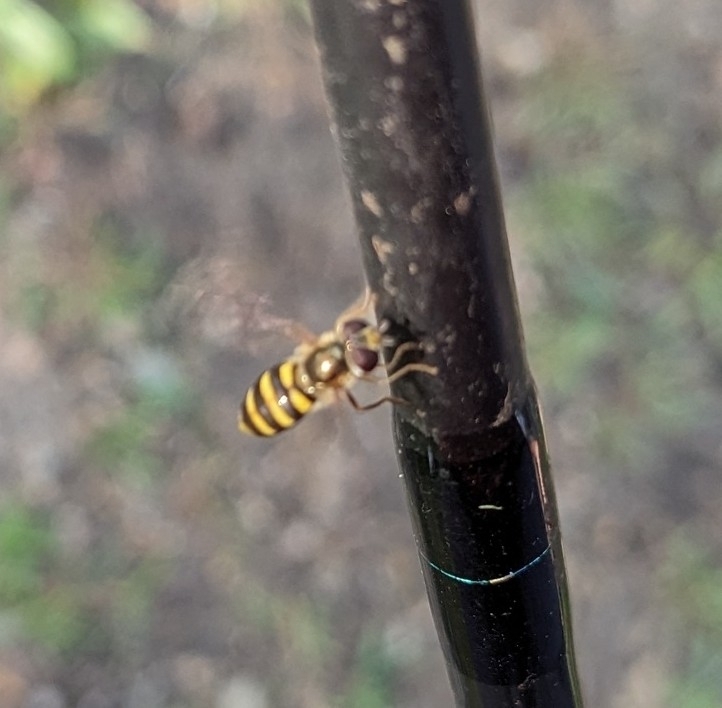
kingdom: Animalia
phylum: Arthropoda
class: Insecta
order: Diptera
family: Syrphidae
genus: Eupeodes
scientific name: Eupeodes
